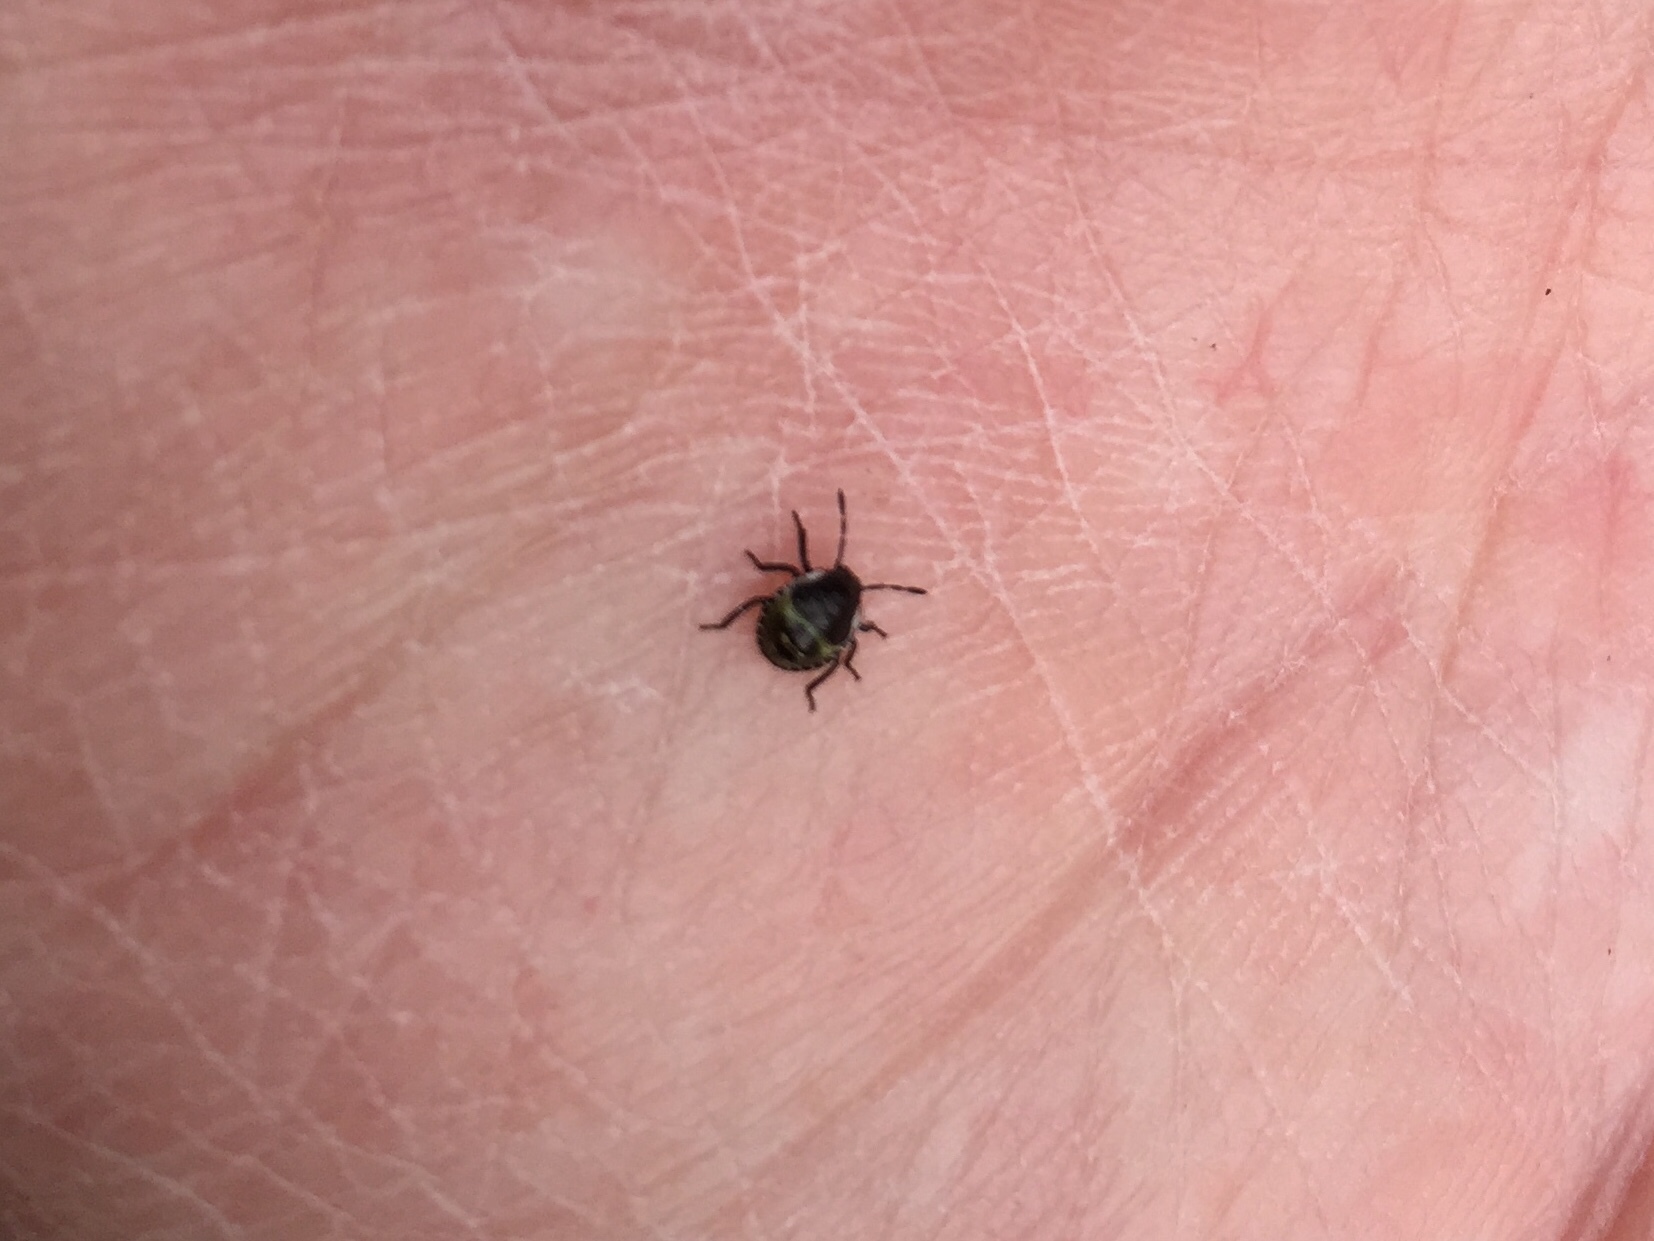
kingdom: Animalia
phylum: Arthropoda
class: Insecta
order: Hemiptera
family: Pentatomidae
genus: Palomena
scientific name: Palomena prasina
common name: Green shieldbug
